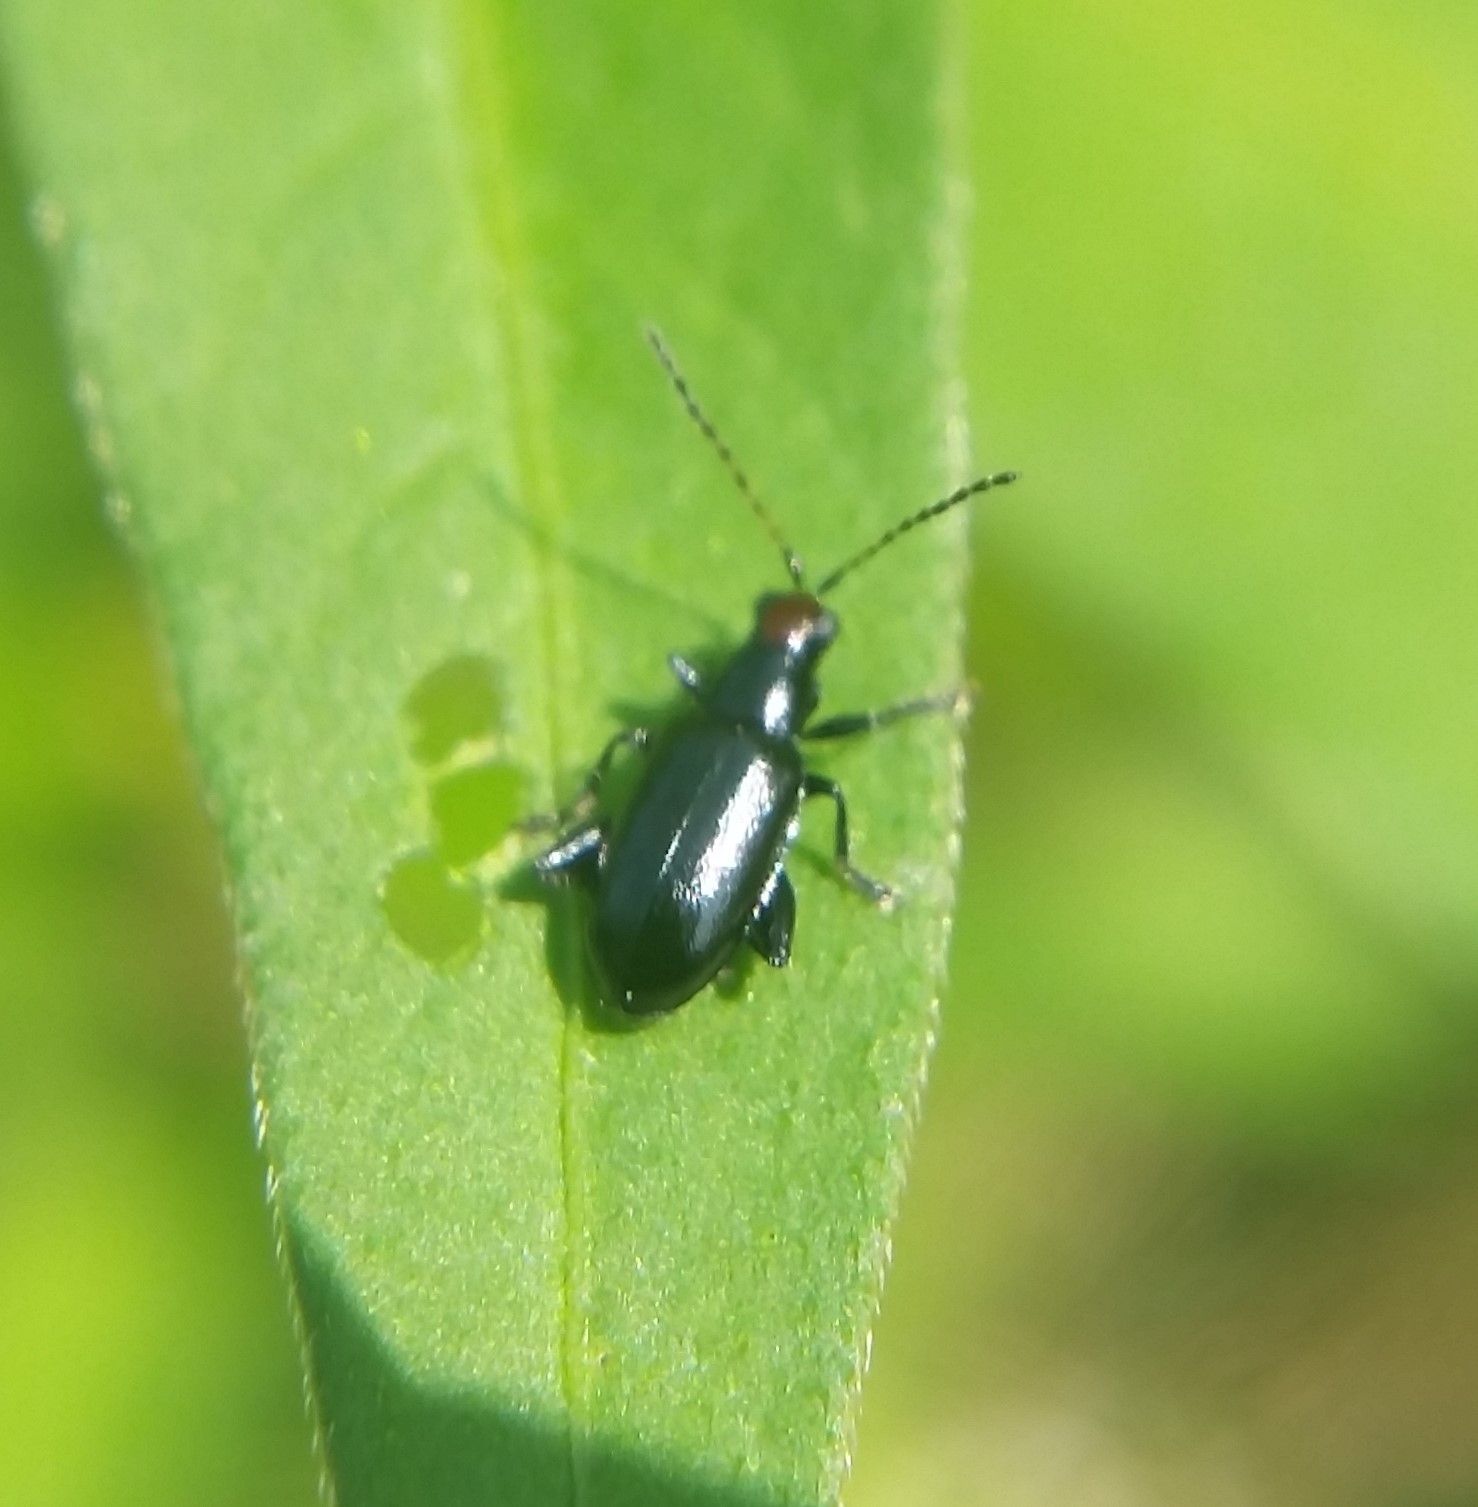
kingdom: Animalia
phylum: Arthropoda
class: Insecta
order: Coleoptera
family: Chrysomelidae
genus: Systena
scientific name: Systena frontalis
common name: Red-headed flea beetle
